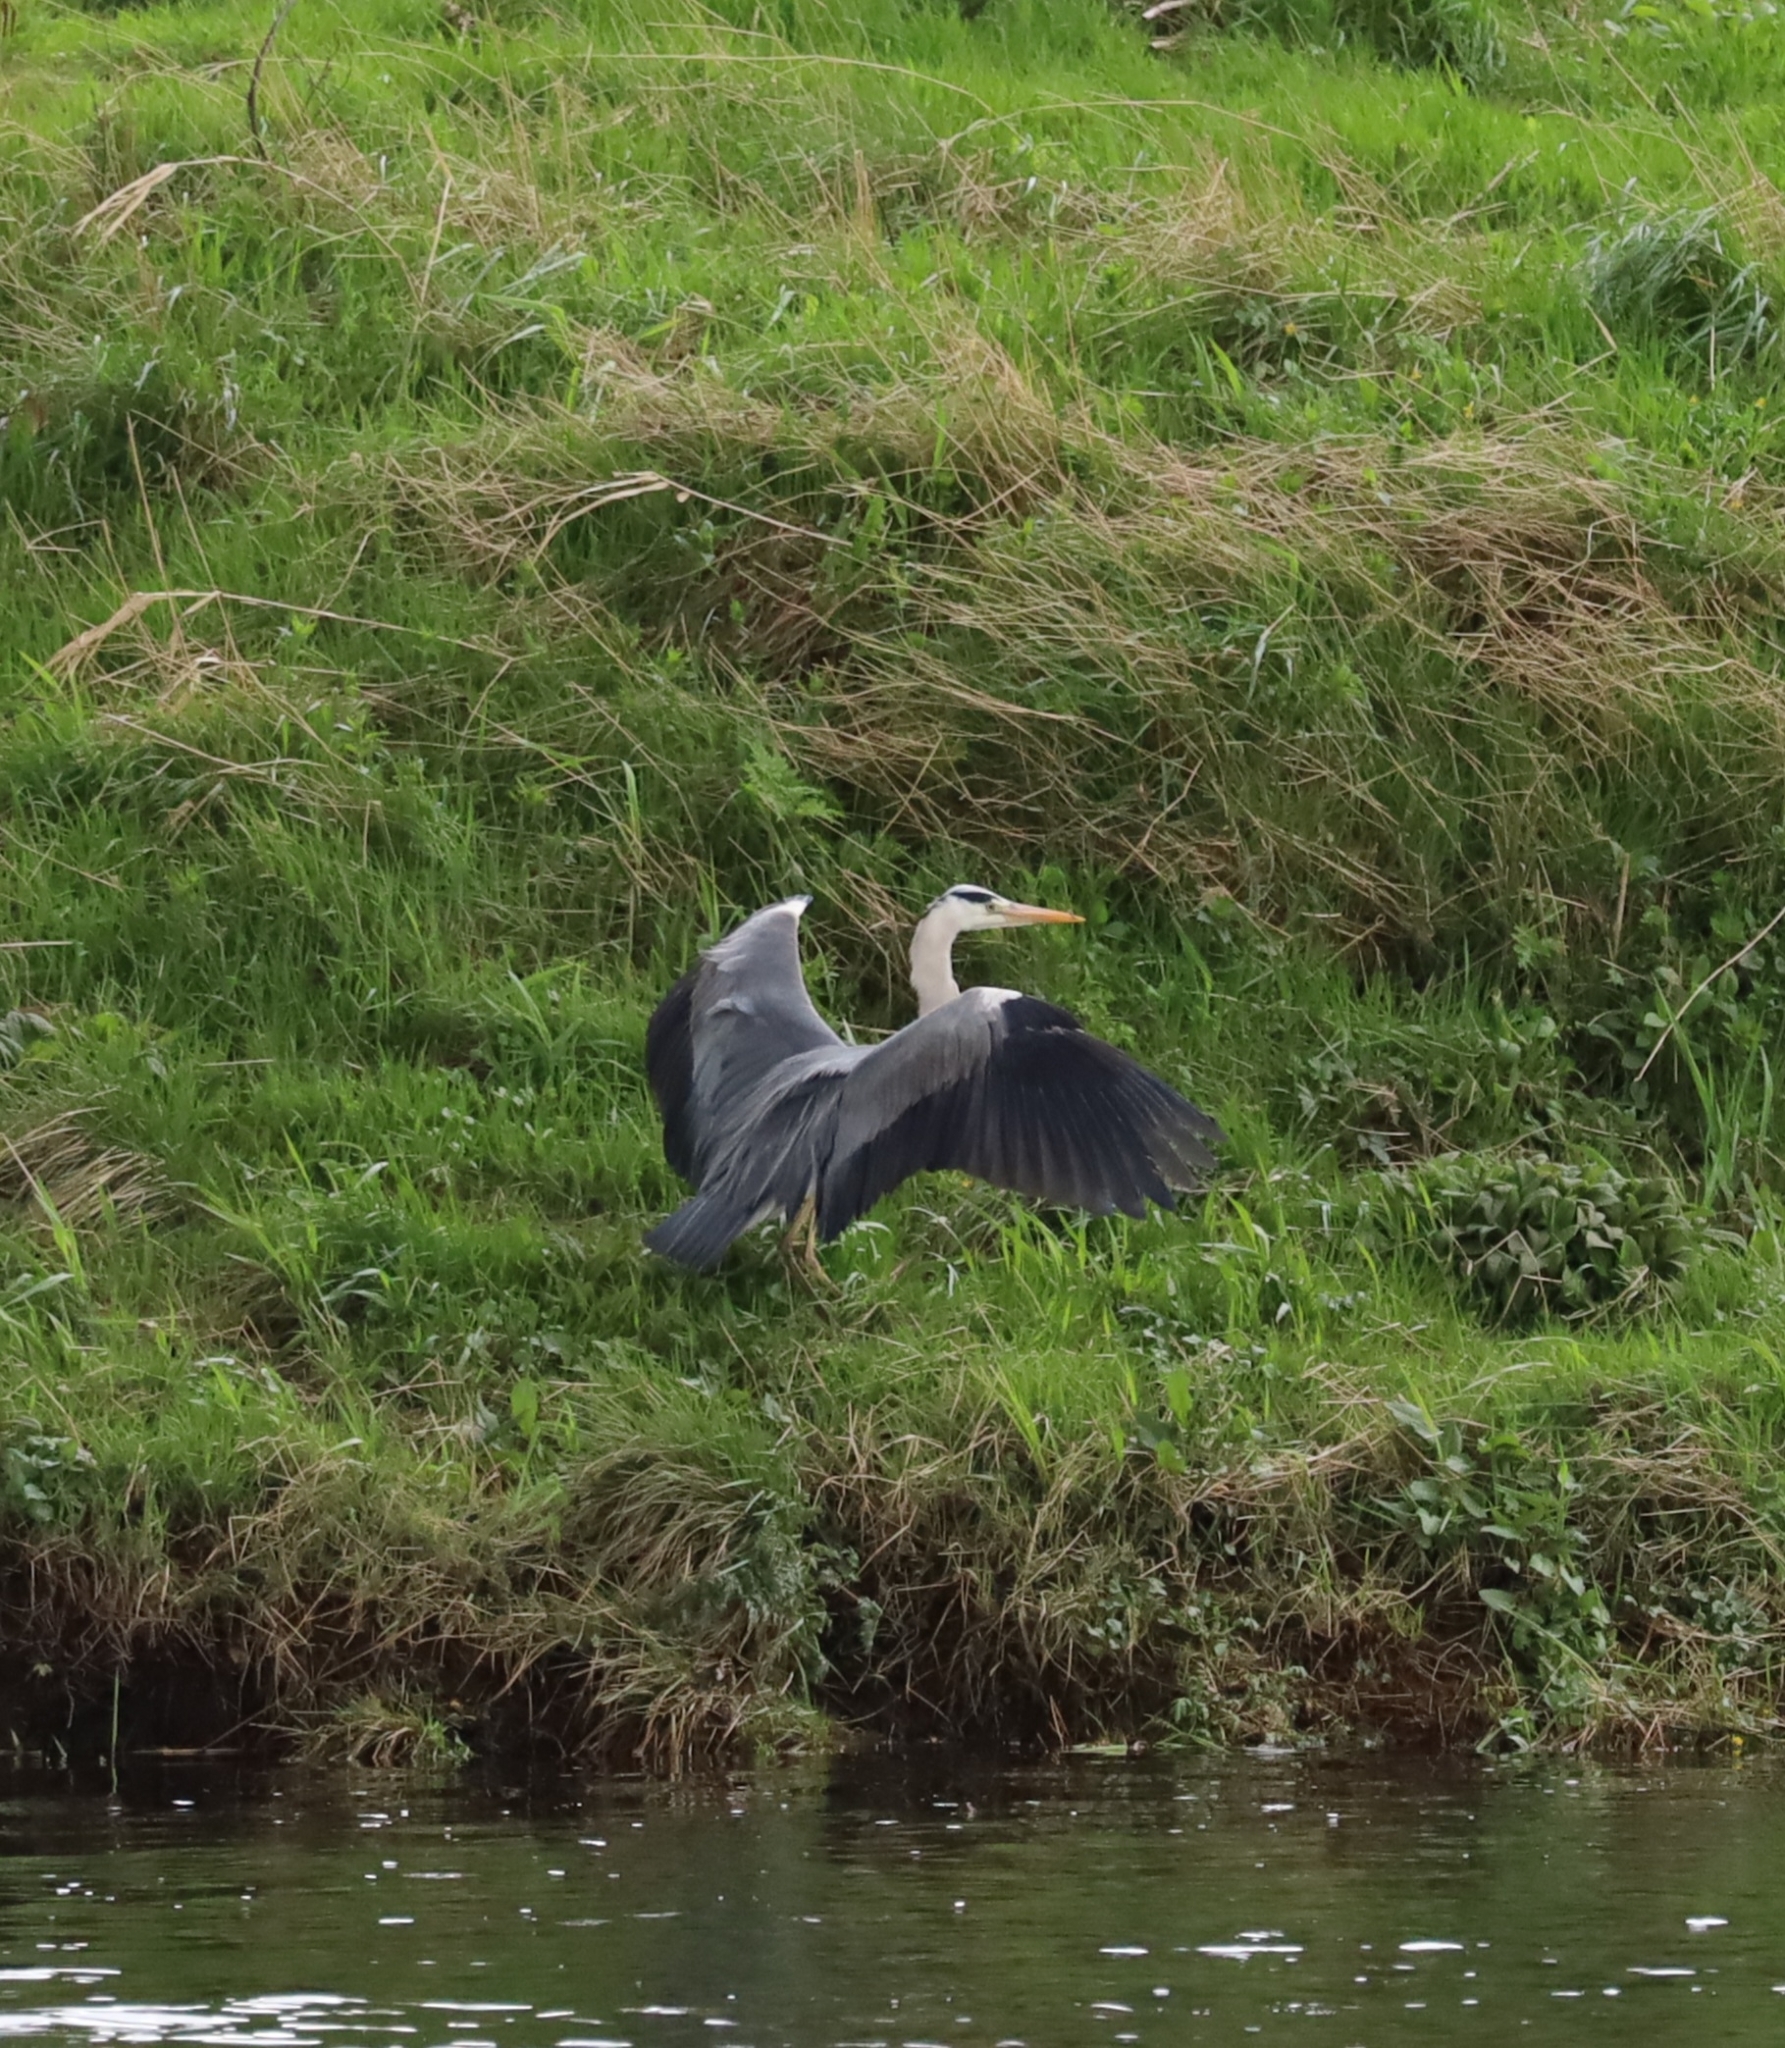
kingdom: Animalia
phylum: Chordata
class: Aves
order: Pelecaniformes
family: Ardeidae
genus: Ardea
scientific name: Ardea cinerea
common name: Grey heron
